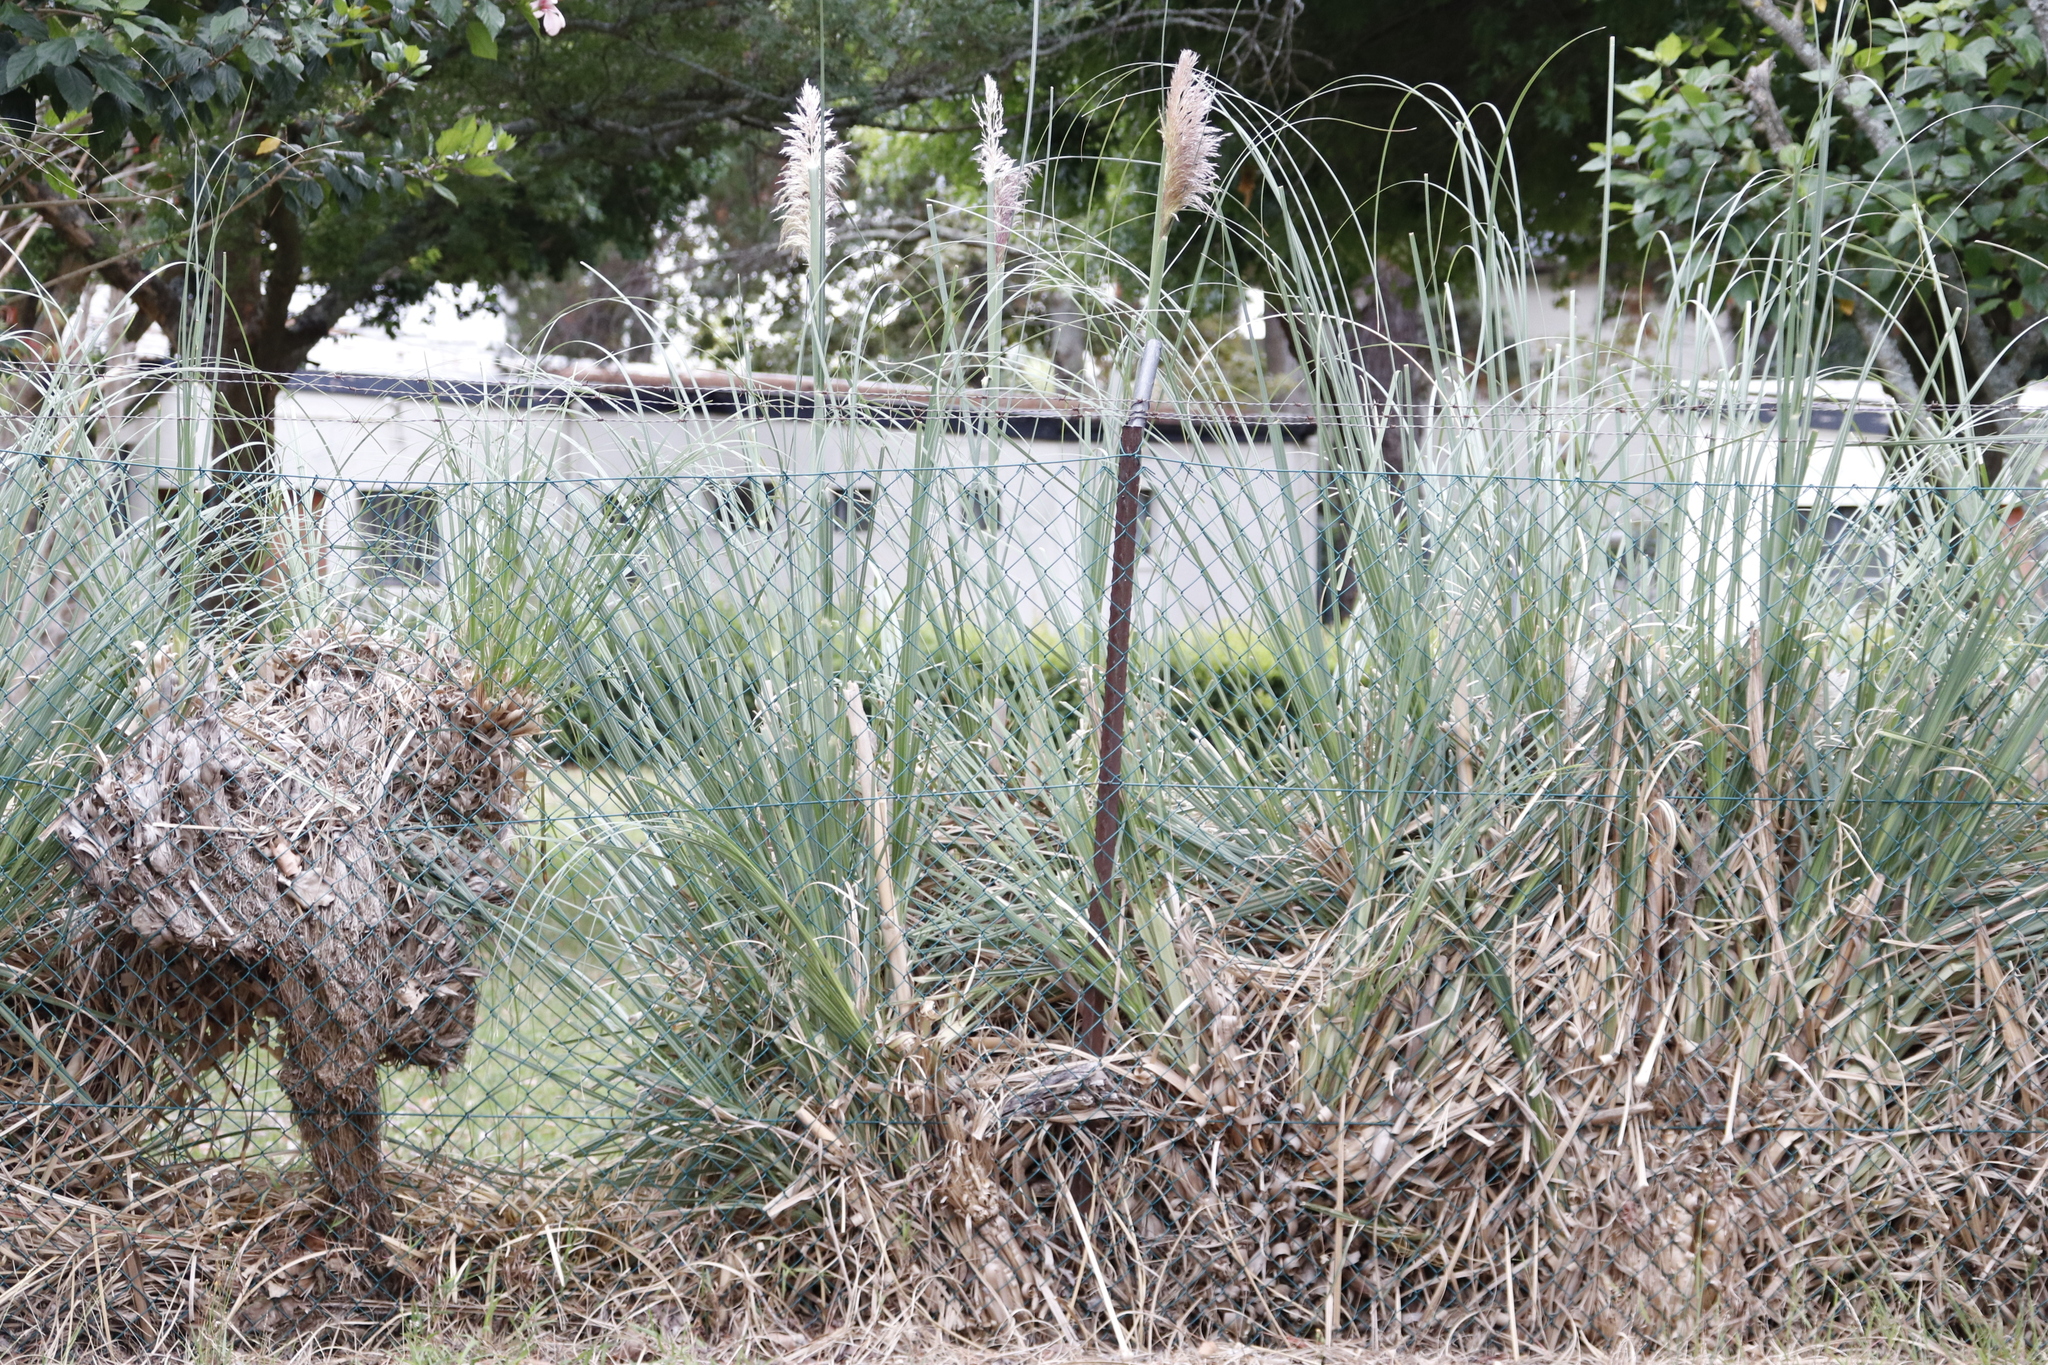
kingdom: Plantae
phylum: Tracheophyta
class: Liliopsida
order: Poales
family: Poaceae
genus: Cortaderia
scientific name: Cortaderia selloana
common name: Uruguayan pampas grass
